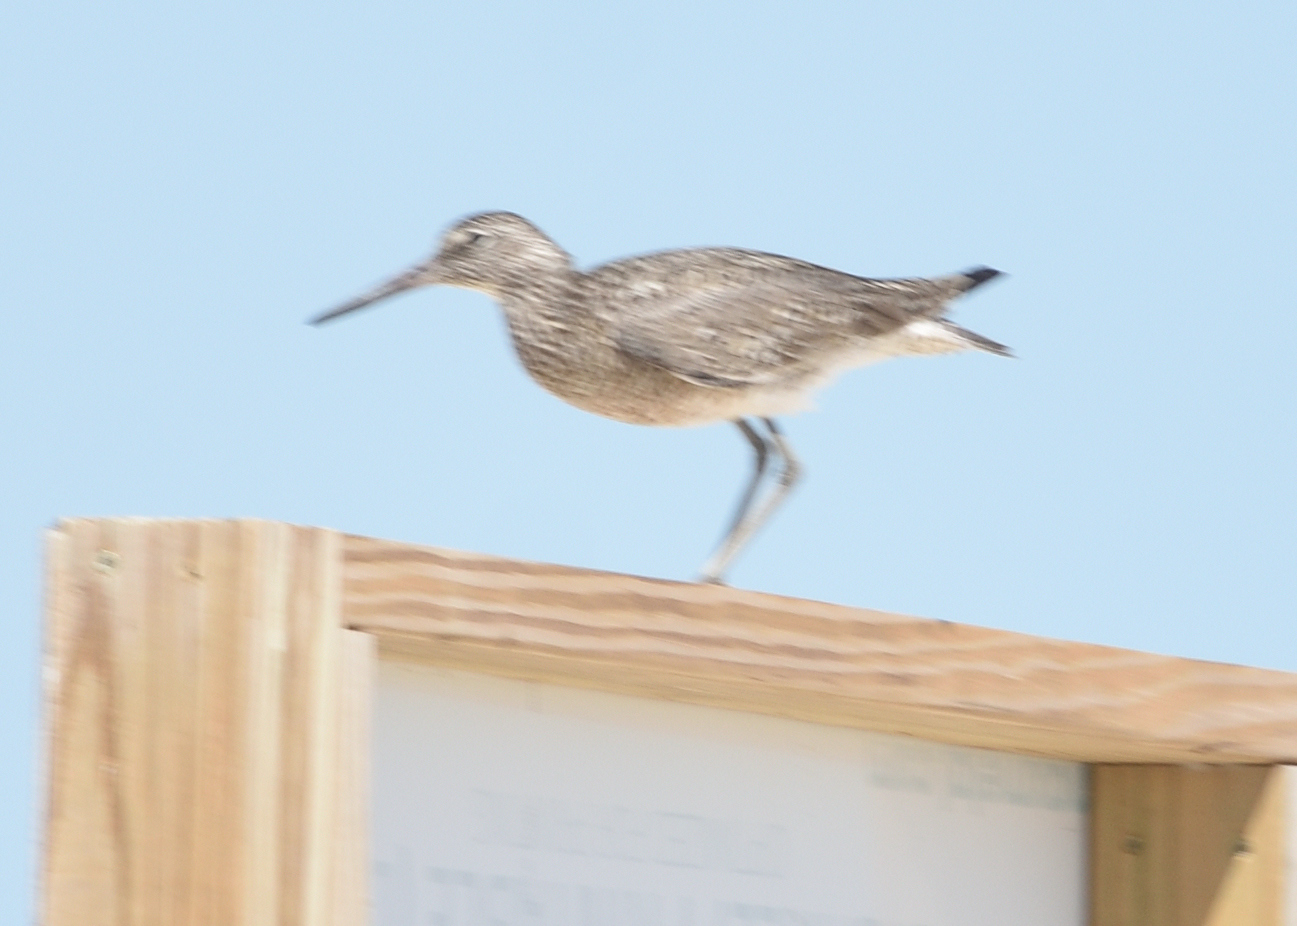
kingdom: Animalia
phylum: Chordata
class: Aves
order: Charadriiformes
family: Scolopacidae
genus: Tringa
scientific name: Tringa semipalmata
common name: Willet
